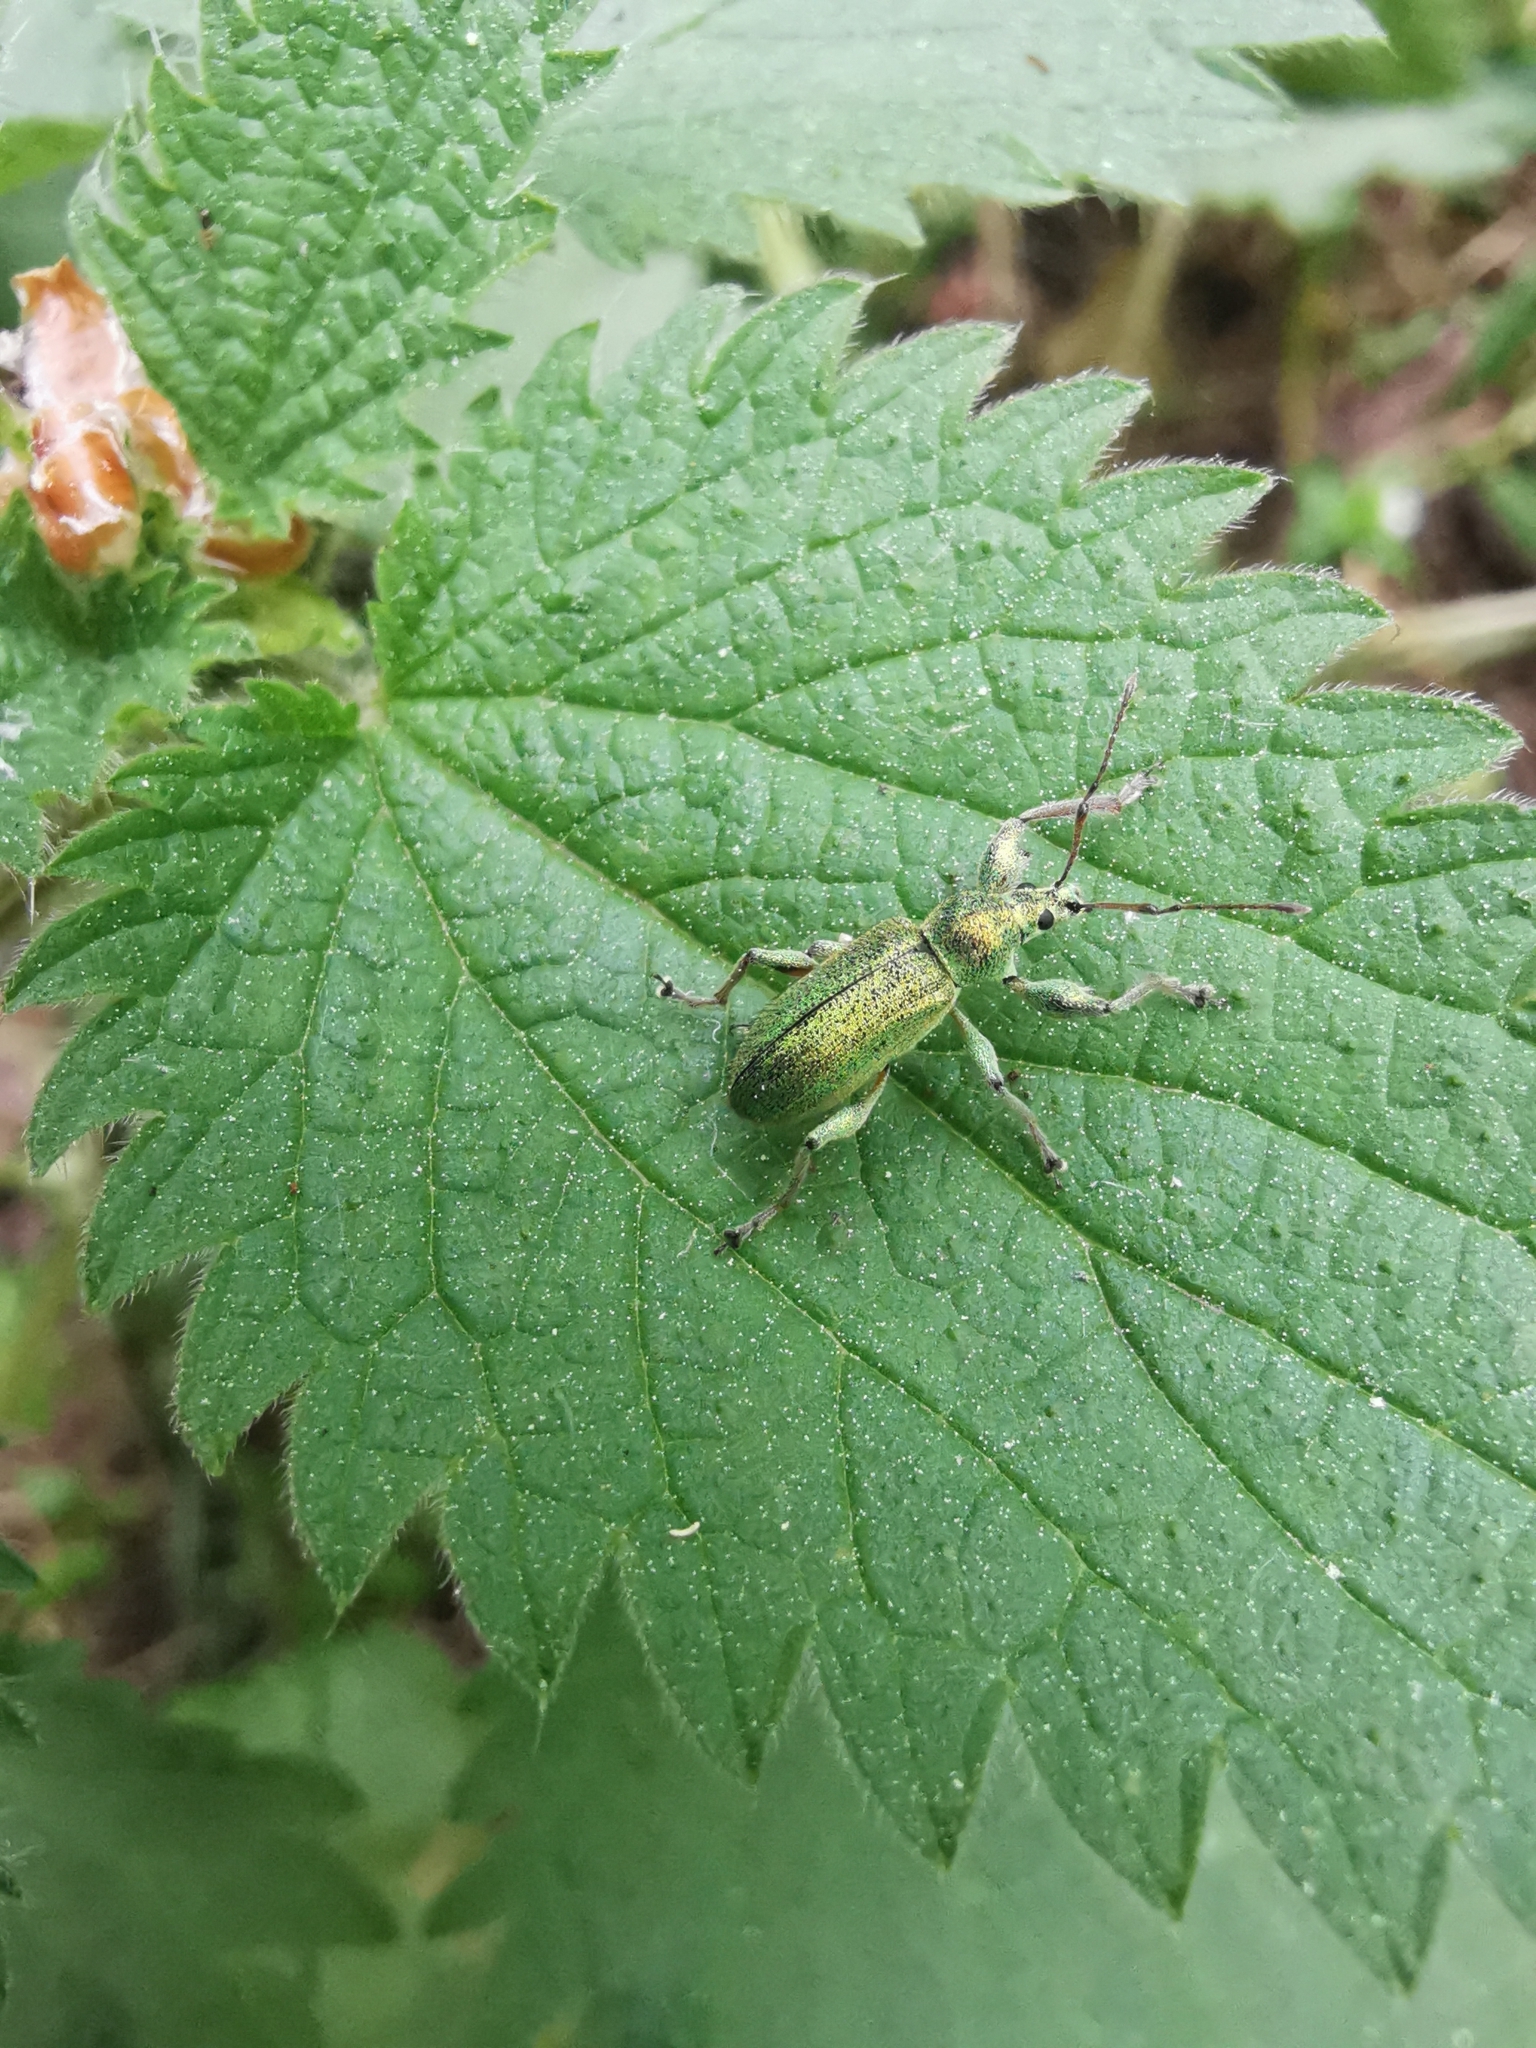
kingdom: Animalia
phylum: Arthropoda
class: Insecta
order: Coleoptera
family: Curculionidae
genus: Phyllobius
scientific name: Phyllobius arborator
